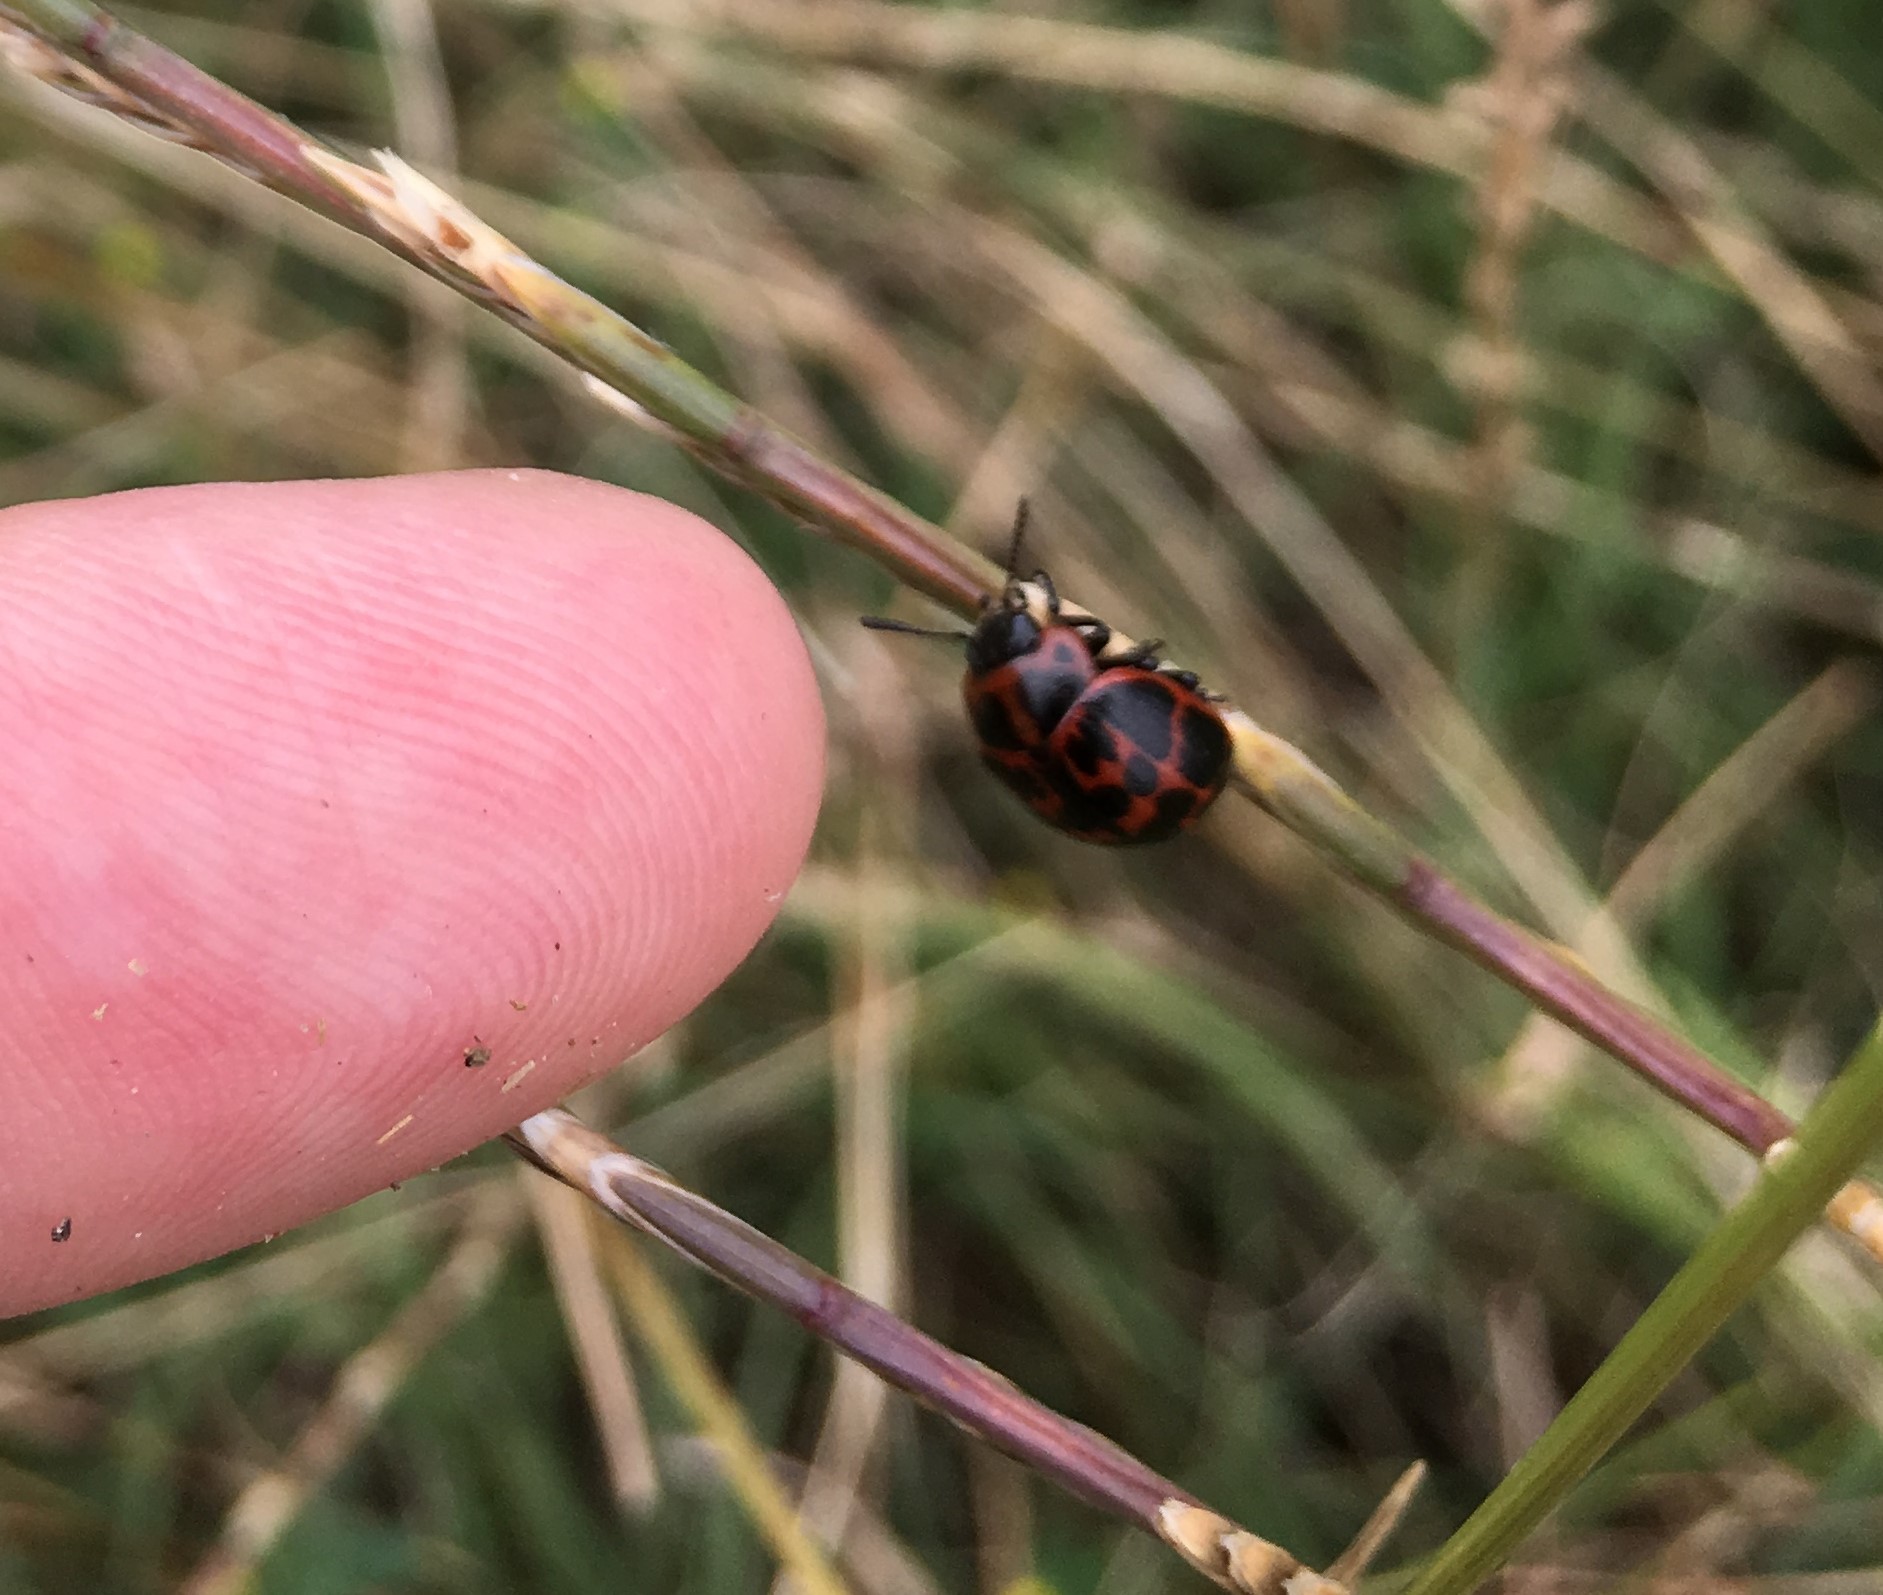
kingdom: Animalia
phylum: Arthropoda
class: Insecta
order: Coleoptera
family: Chrysomelidae
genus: Platyphora
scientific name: Platyphora
